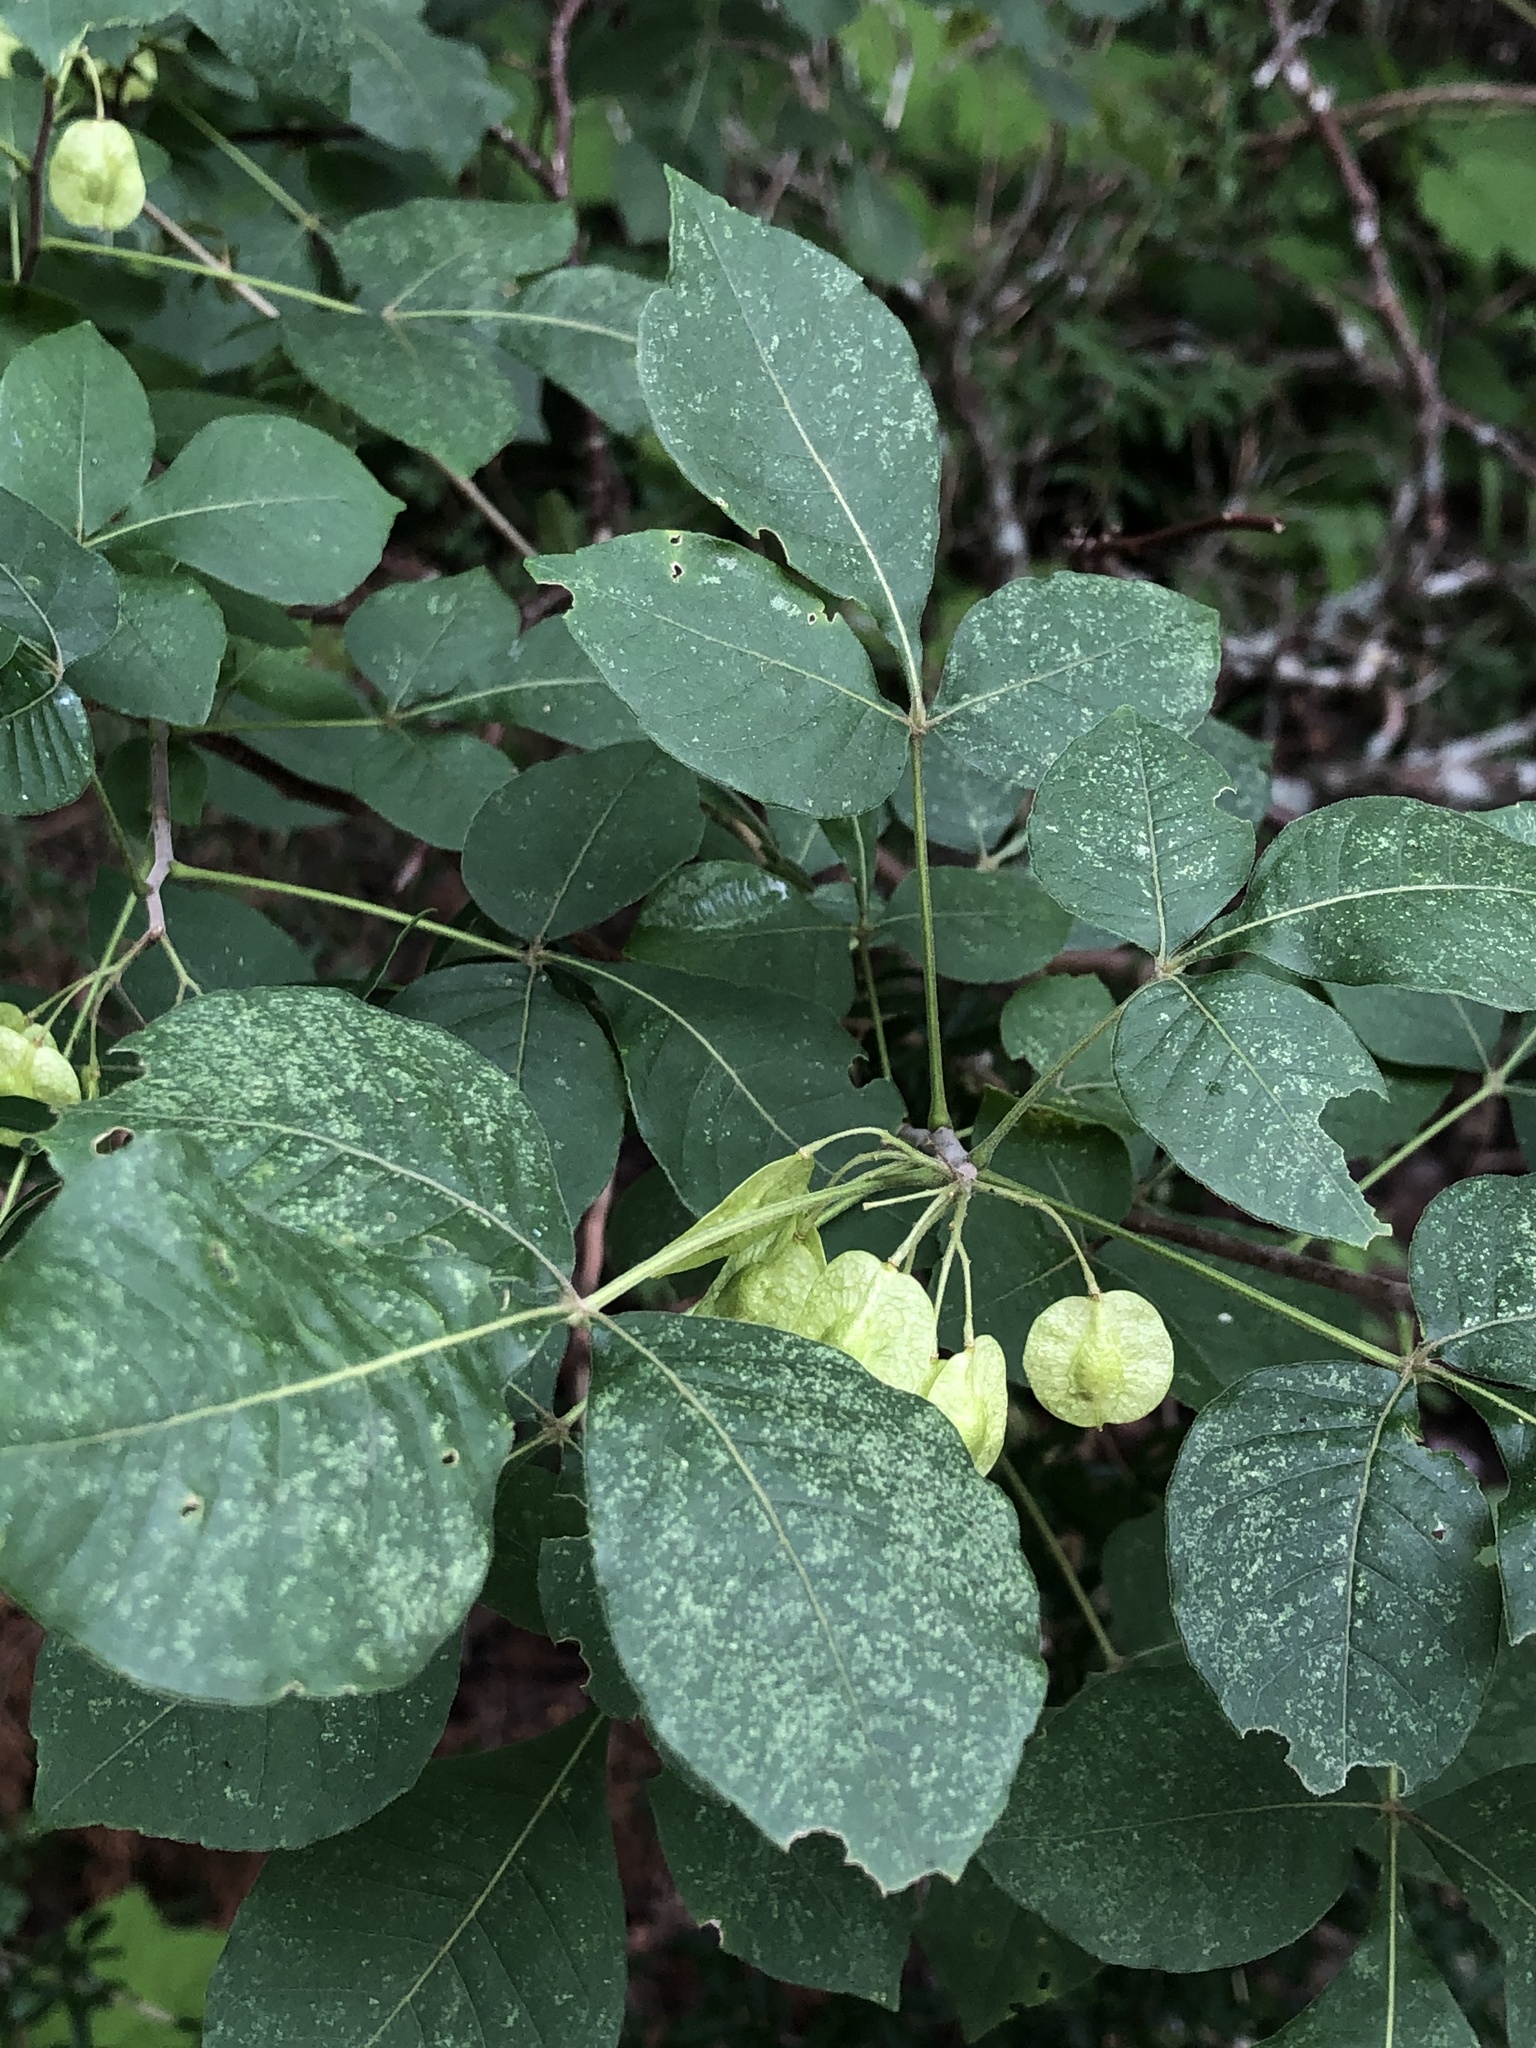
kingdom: Plantae
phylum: Tracheophyta
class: Magnoliopsida
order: Sapindales
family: Rutaceae
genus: Ptelea
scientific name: Ptelea trifoliata
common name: Common hop-tree
